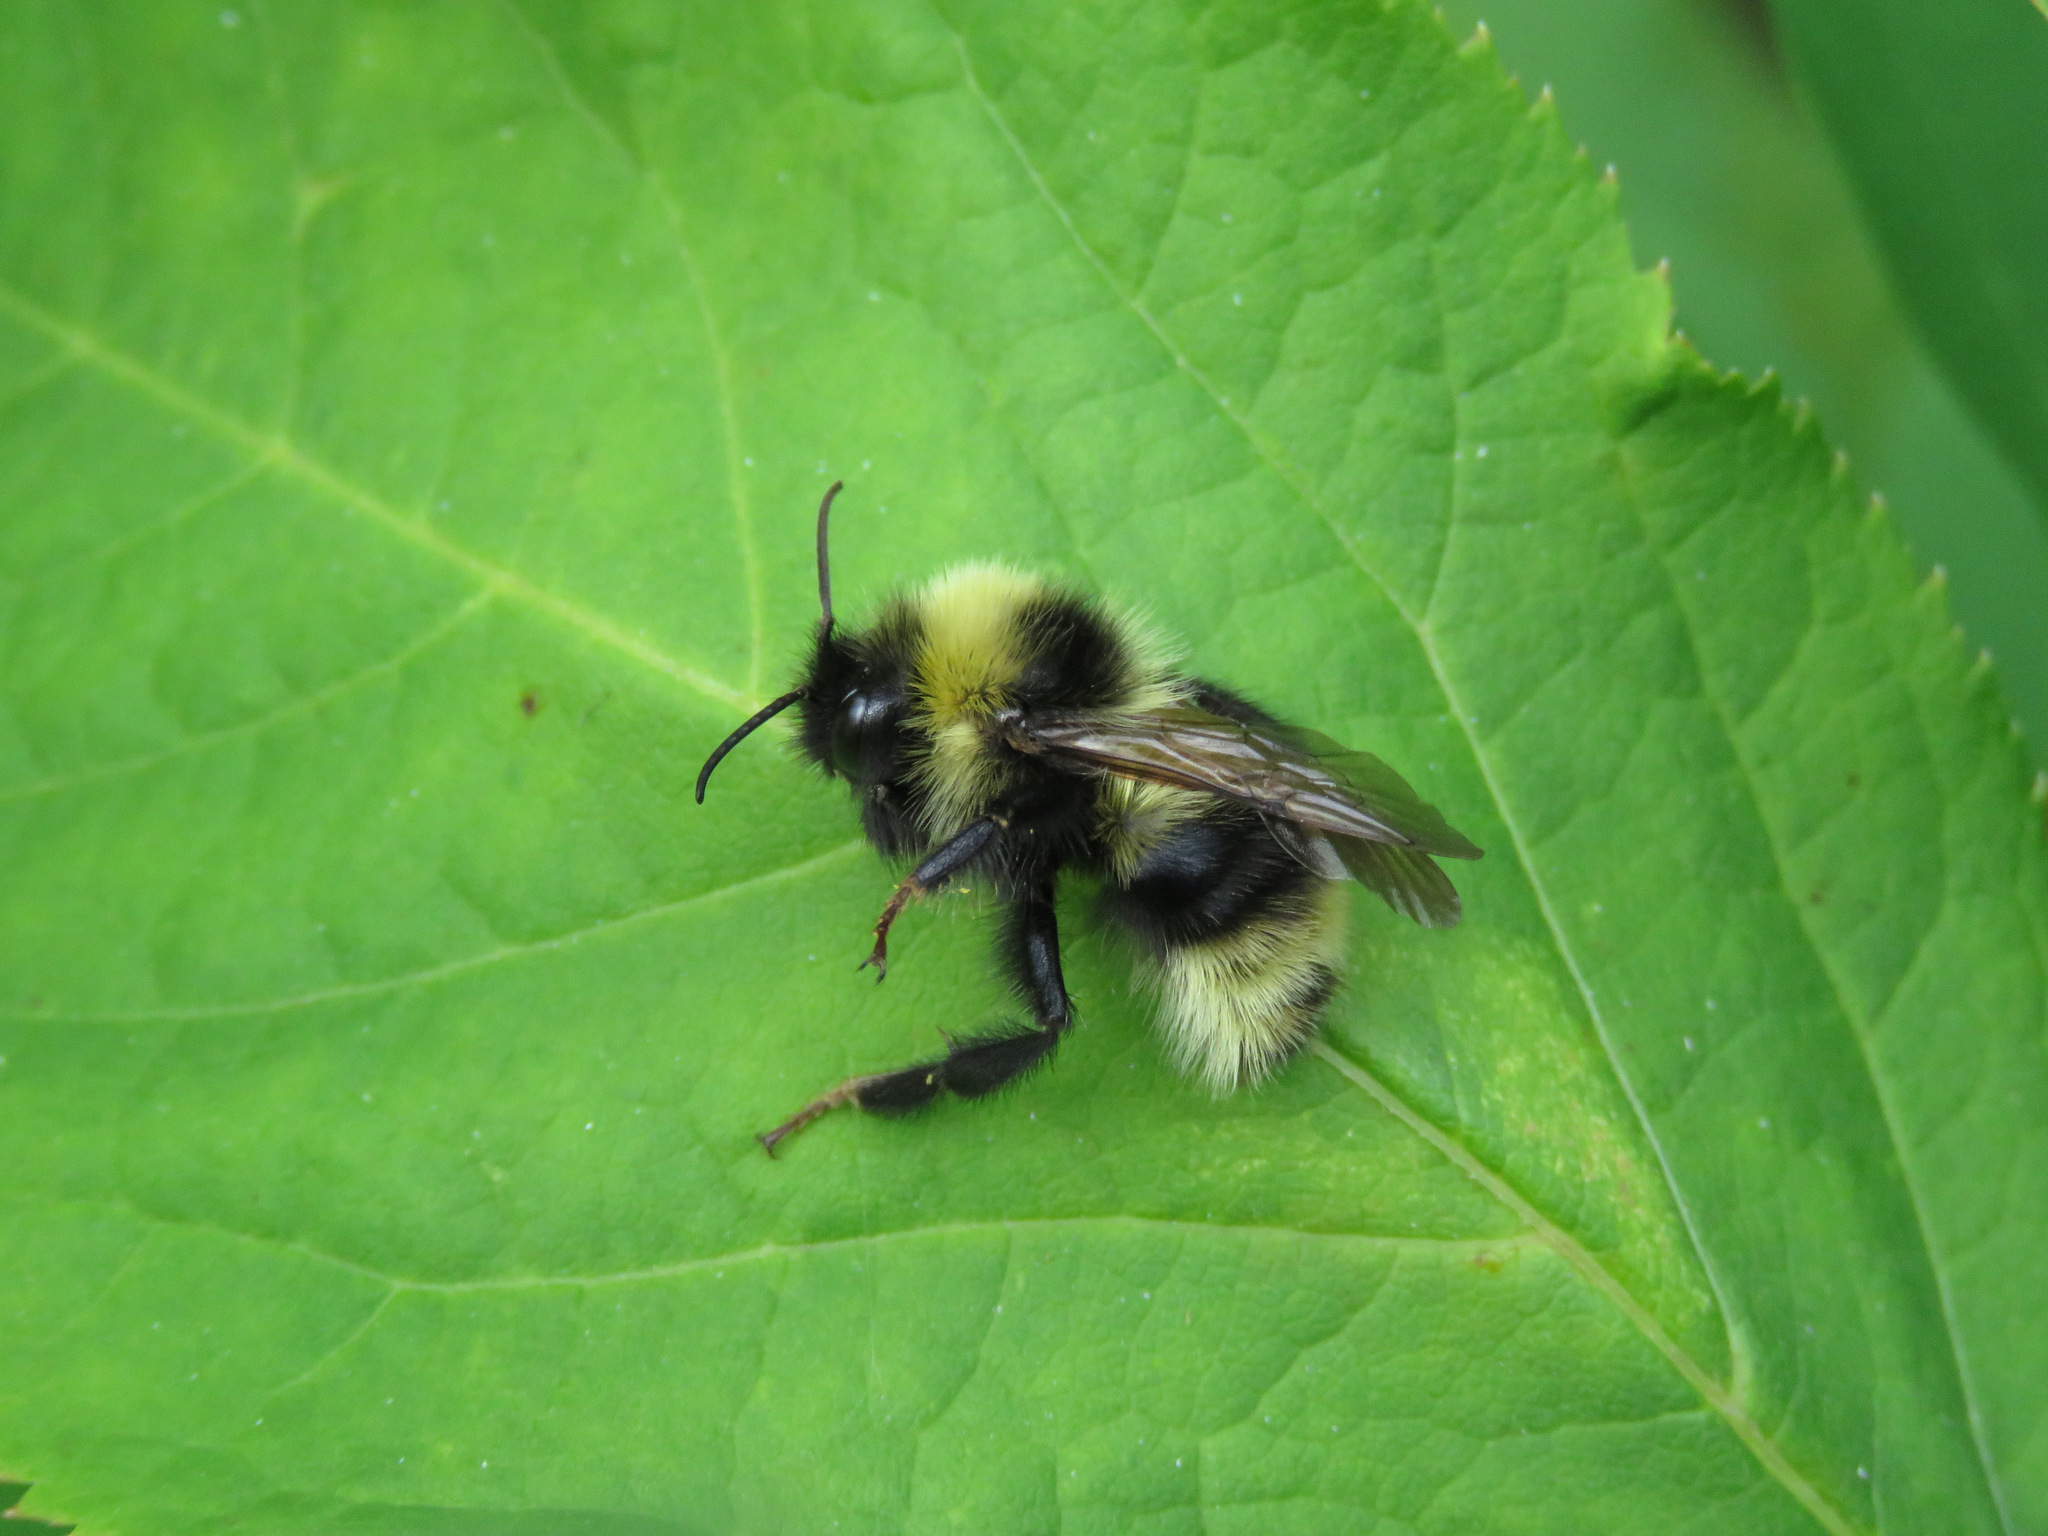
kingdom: Animalia
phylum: Arthropoda
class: Insecta
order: Hymenoptera
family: Apidae
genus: Bombus
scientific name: Bombus ashtoni
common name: Ashton's cuckoo bumble bee
